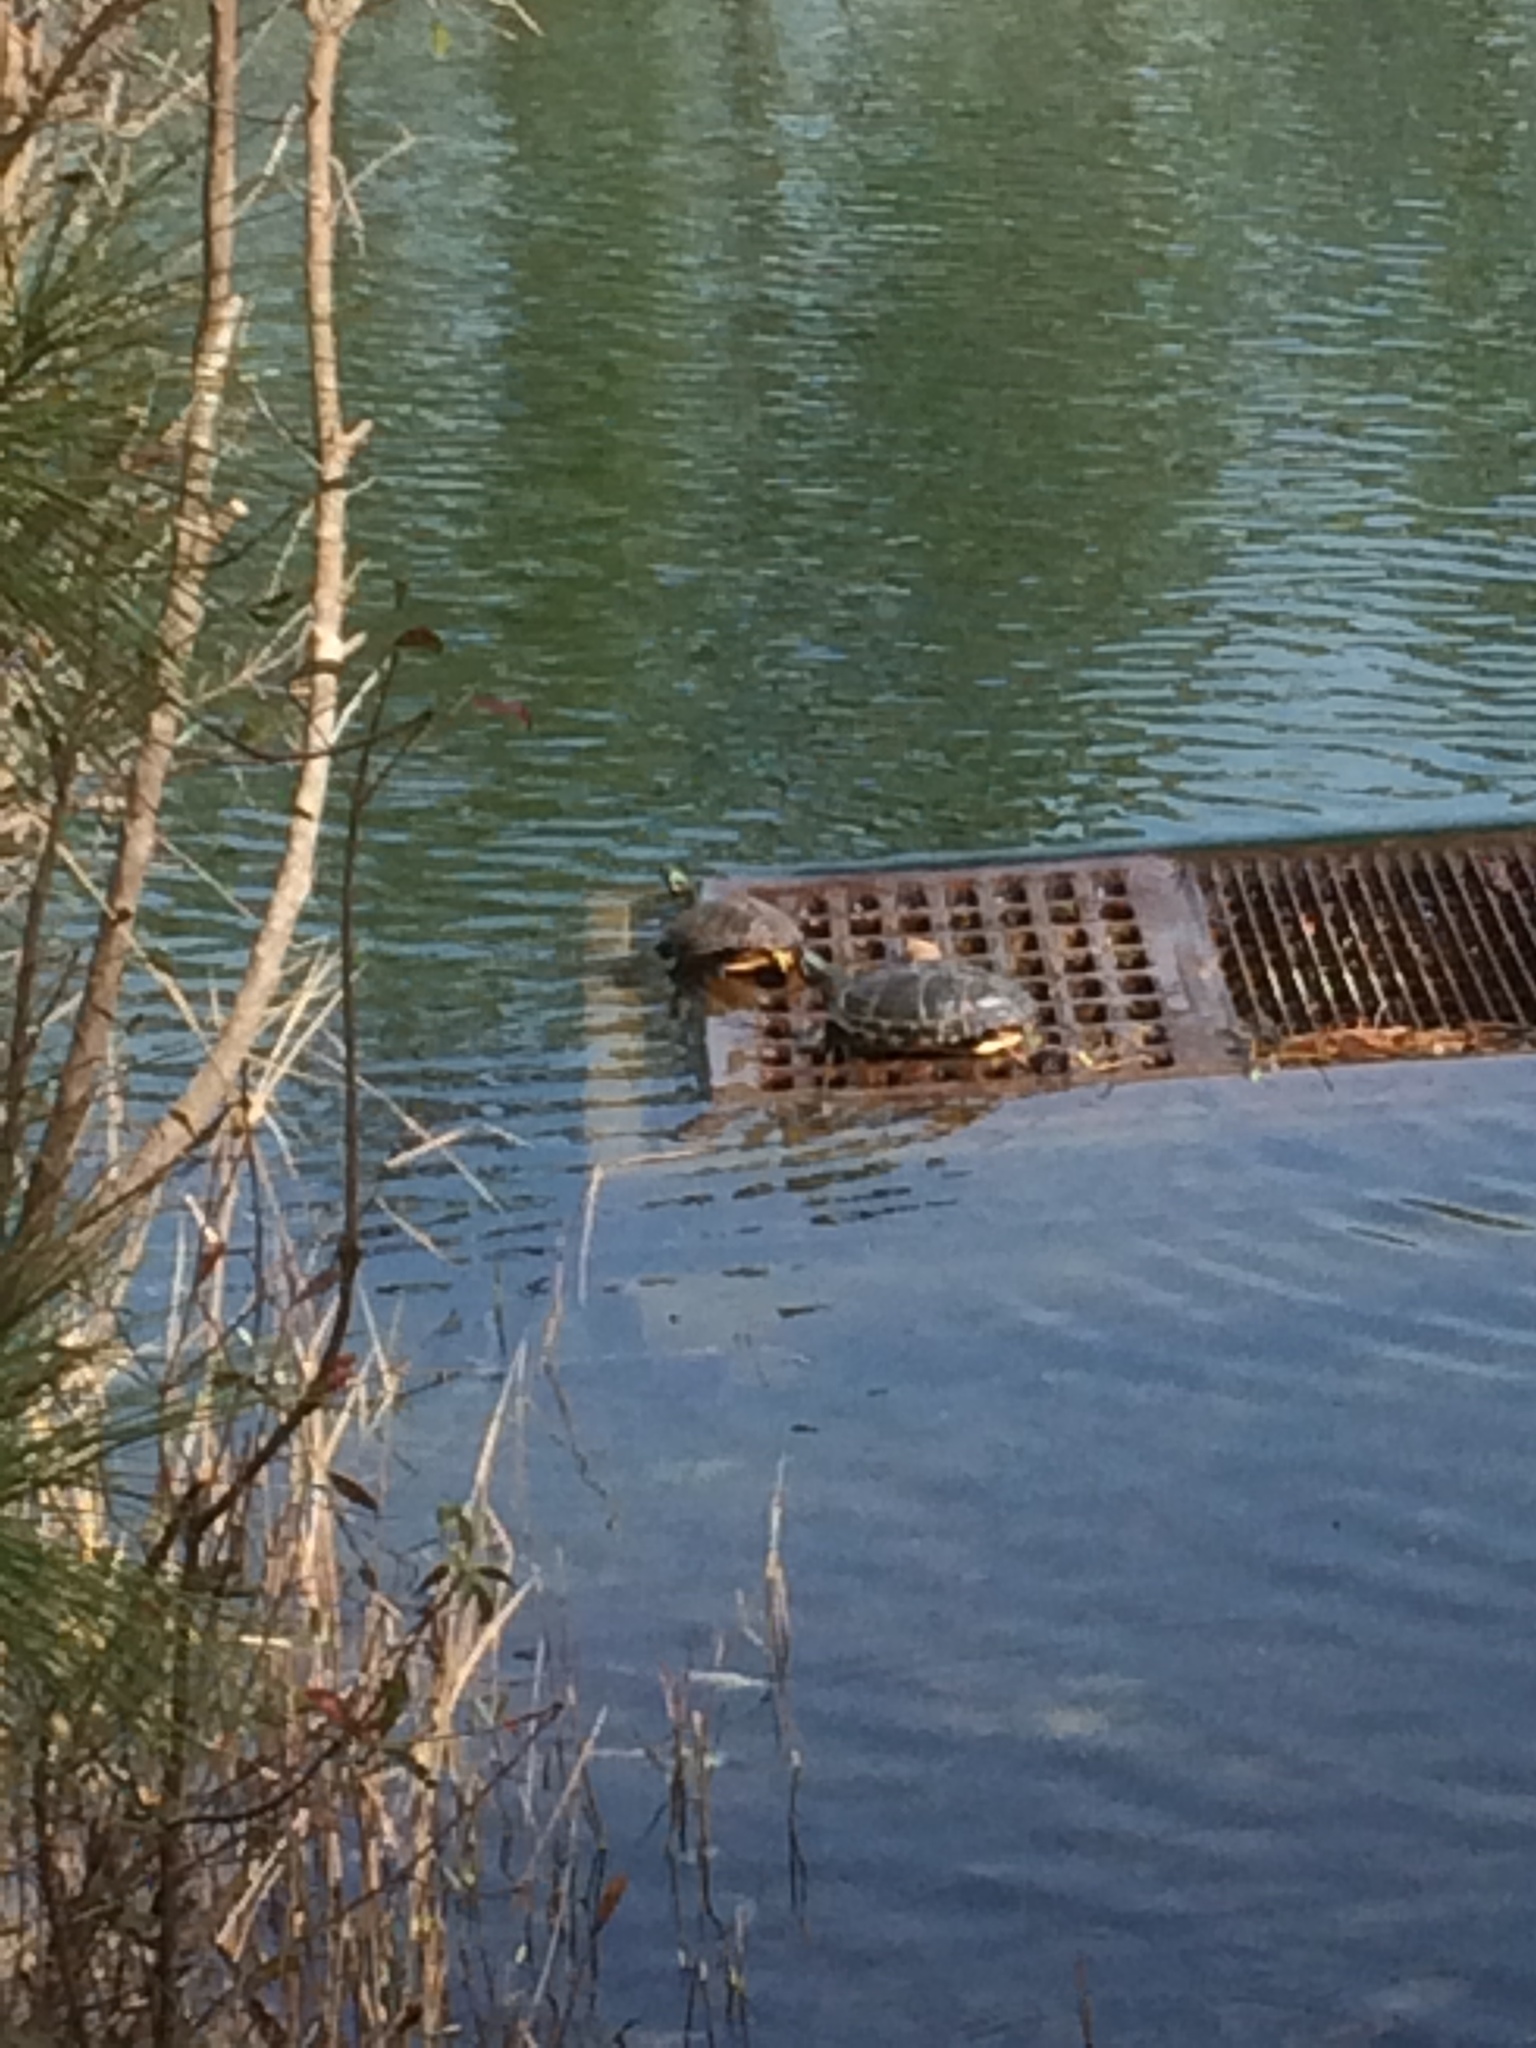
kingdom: Animalia
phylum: Chordata
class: Testudines
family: Emydidae
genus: Trachemys
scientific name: Trachemys scripta
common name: Slider
